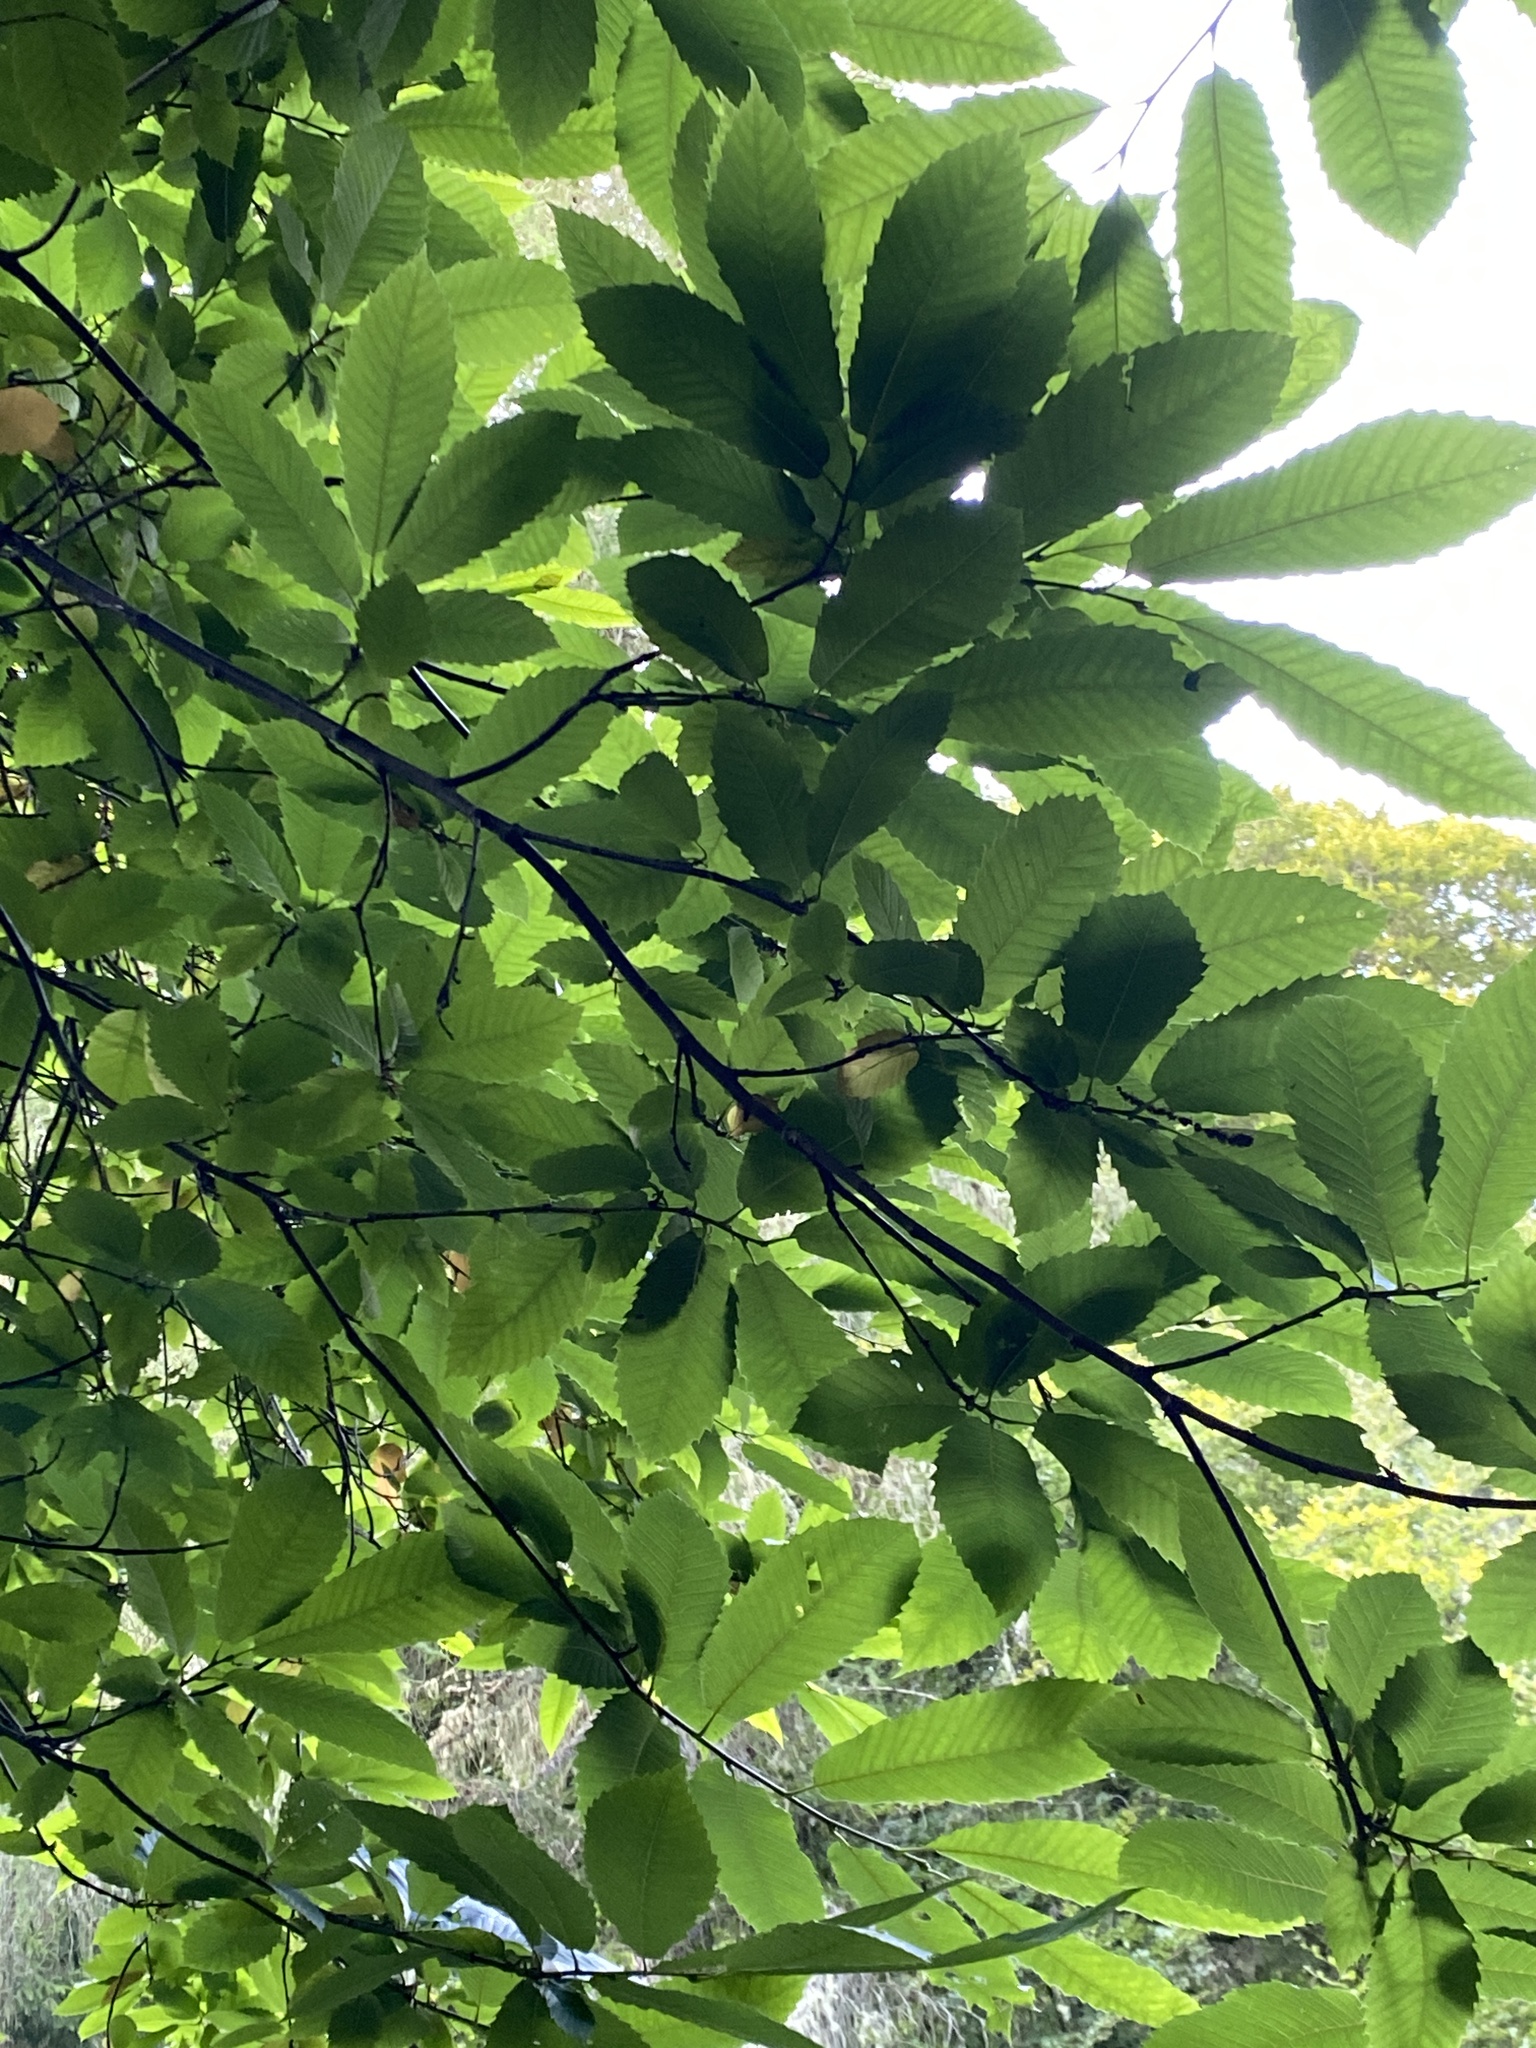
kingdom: Plantae
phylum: Tracheophyta
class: Magnoliopsida
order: Fagales
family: Fagaceae
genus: Castanea
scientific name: Castanea sativa
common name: Sweet chestnut
